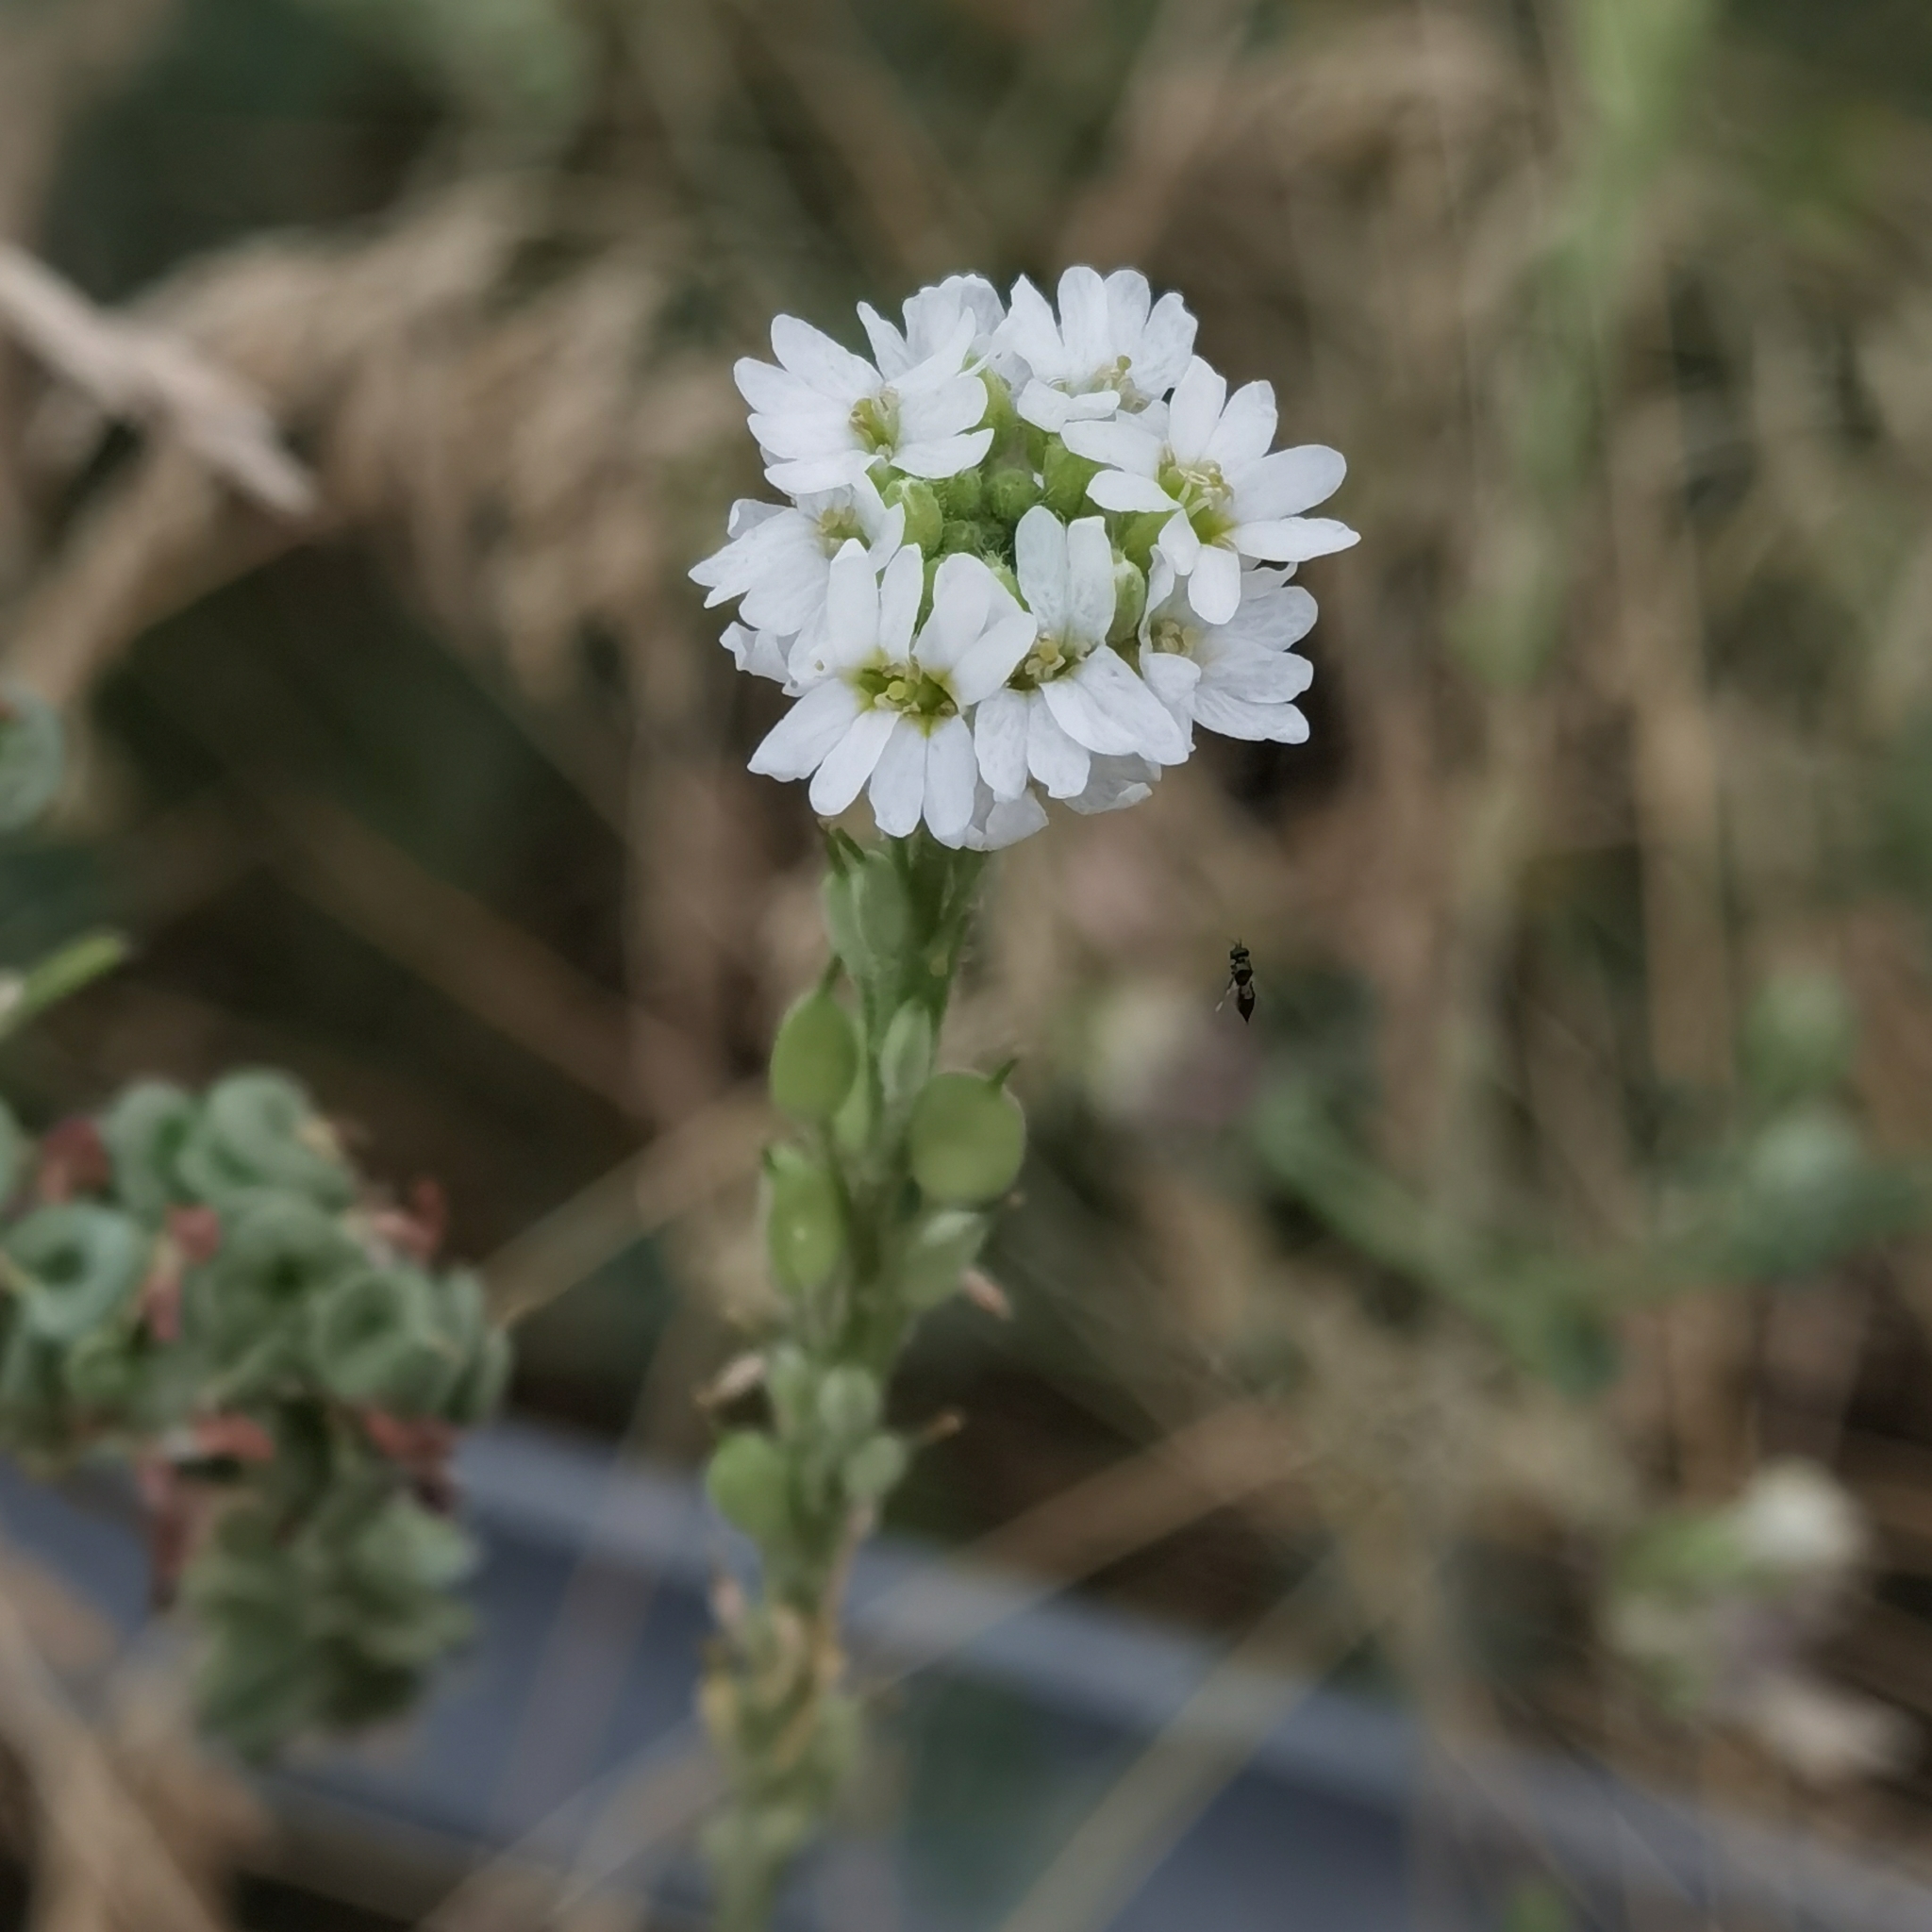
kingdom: Plantae
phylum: Tracheophyta
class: Magnoliopsida
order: Brassicales
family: Brassicaceae
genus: Berteroa
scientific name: Berteroa incana
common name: Hoary alison
